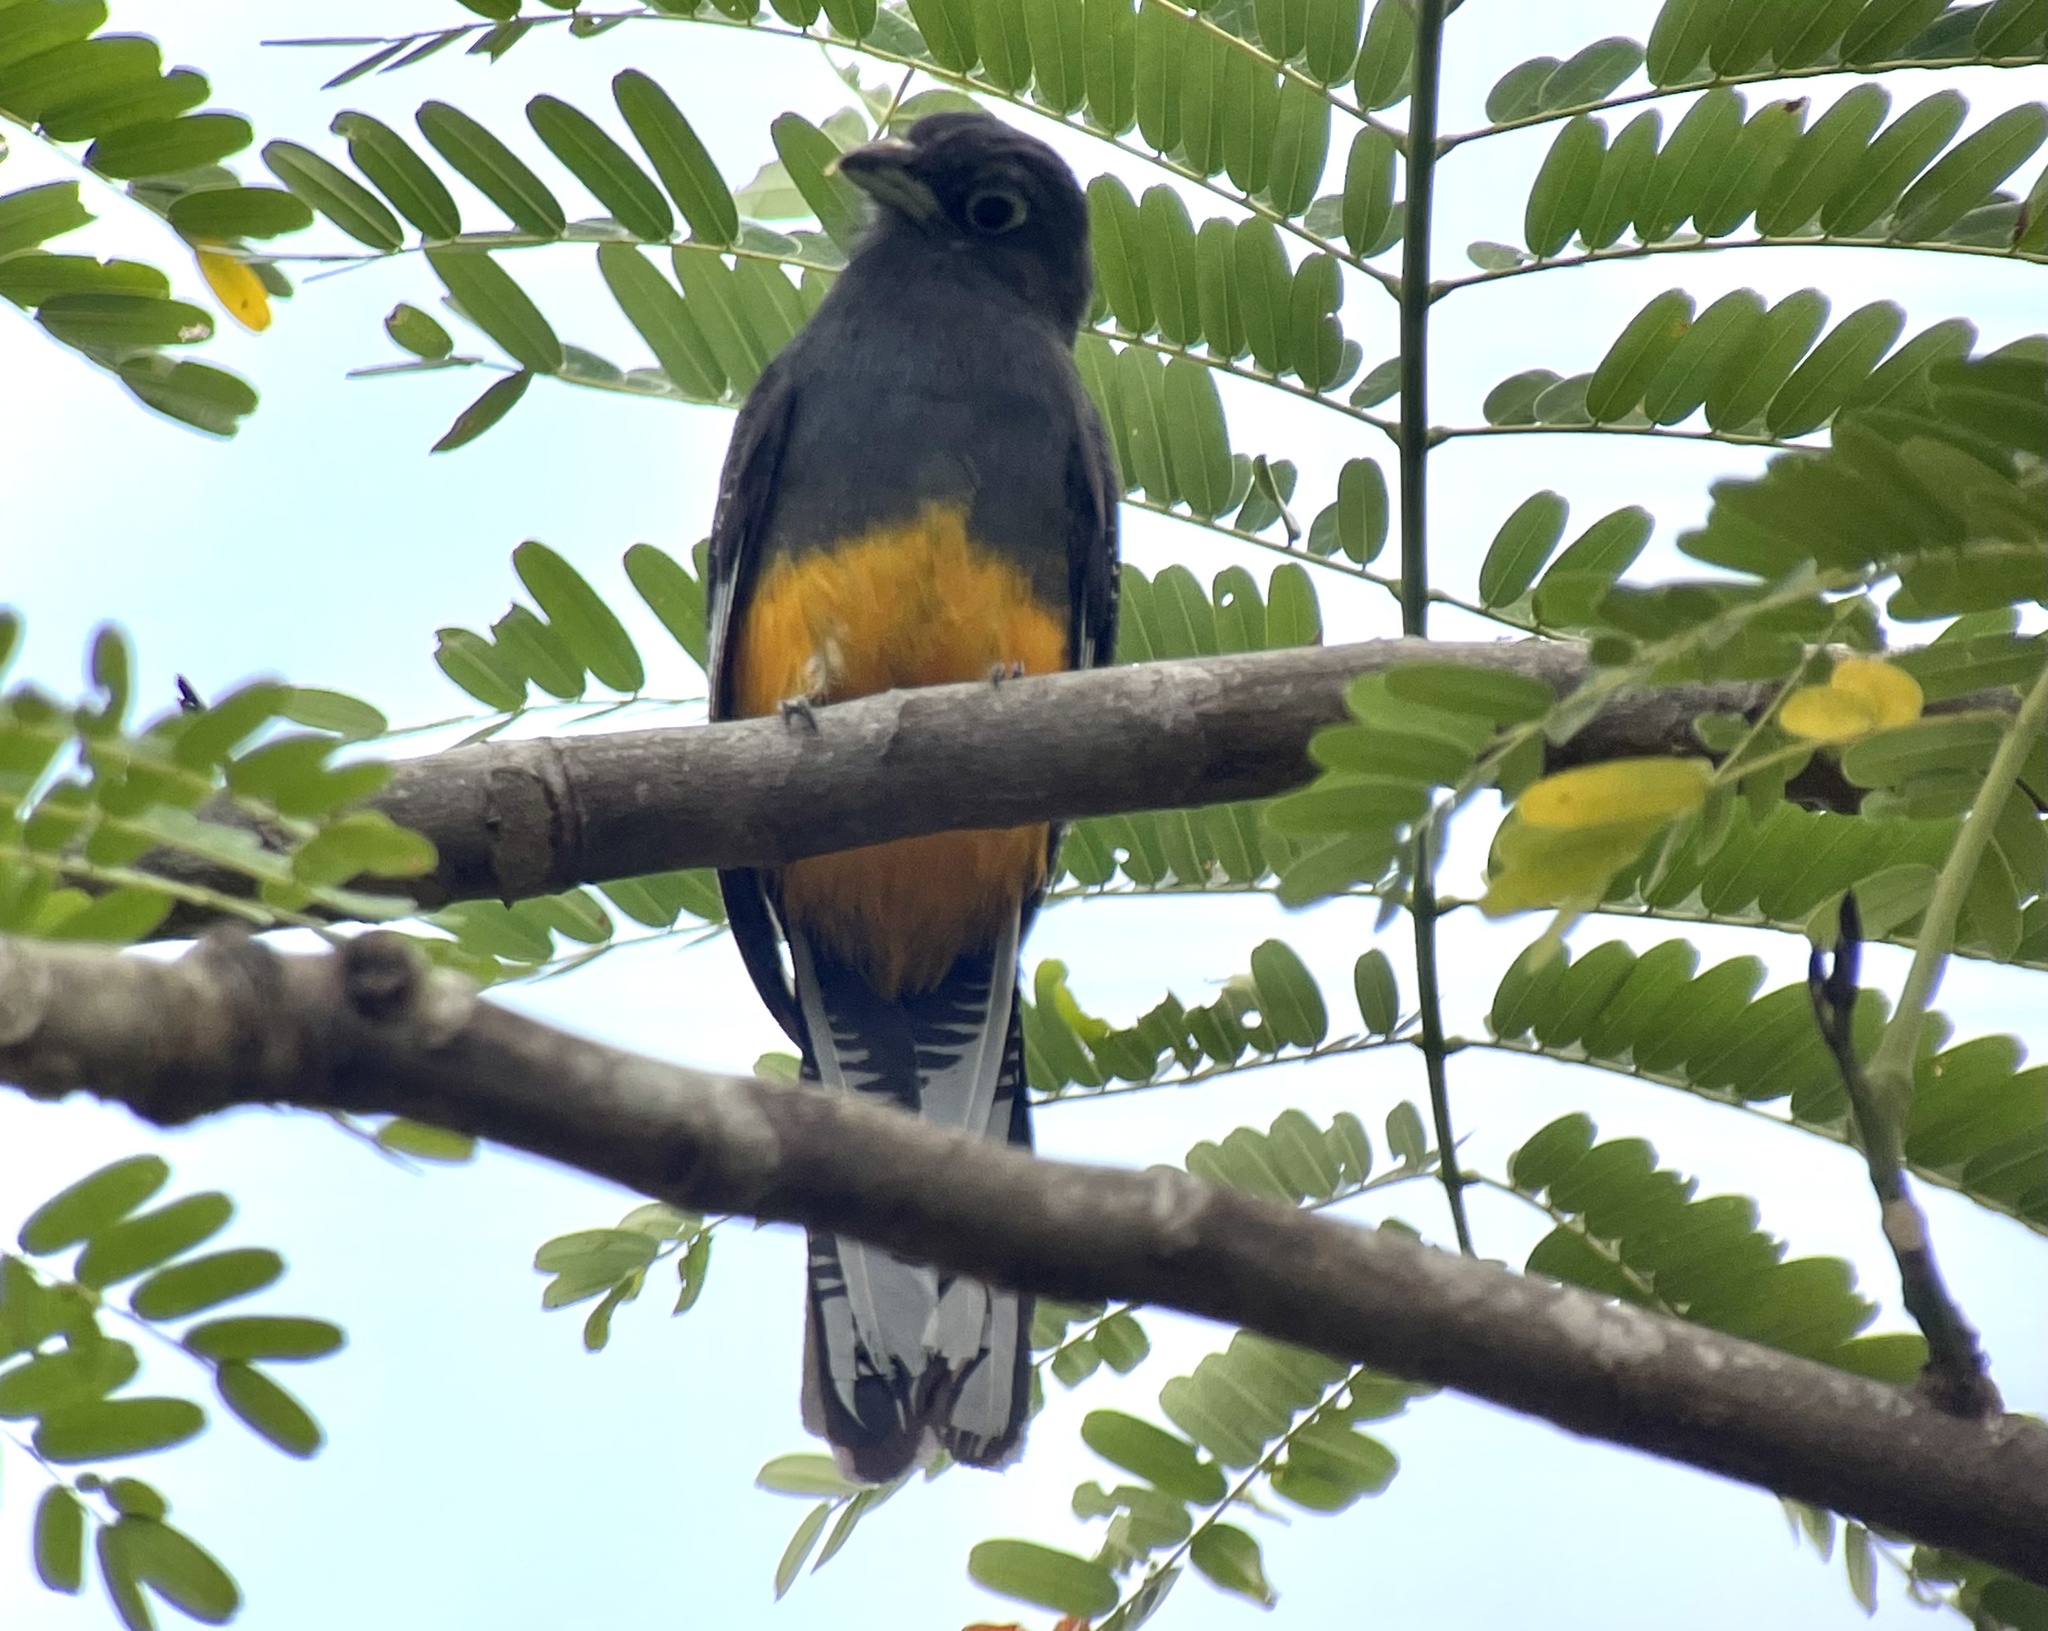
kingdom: Animalia
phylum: Chordata
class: Aves
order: Trogoniformes
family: Trogonidae
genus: Trogon
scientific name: Trogon chionurus
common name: White-tailed trogon
